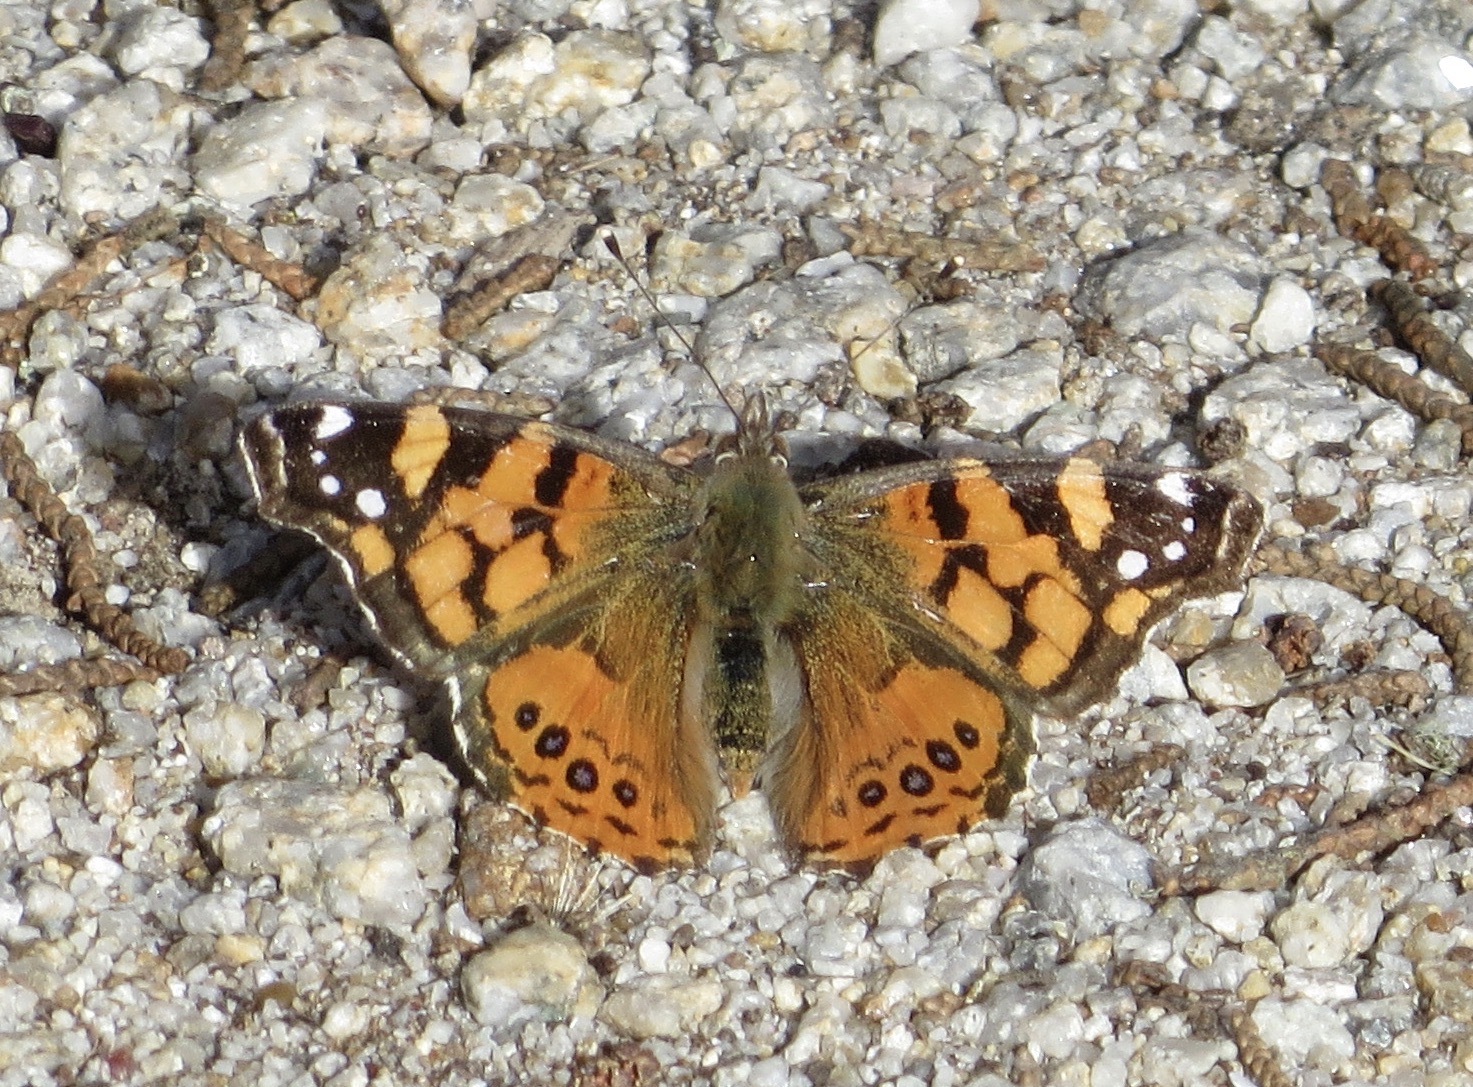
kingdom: Animalia
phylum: Arthropoda
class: Insecta
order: Lepidoptera
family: Nymphalidae
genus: Vanessa
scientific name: Vanessa annabella
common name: West coast lady
